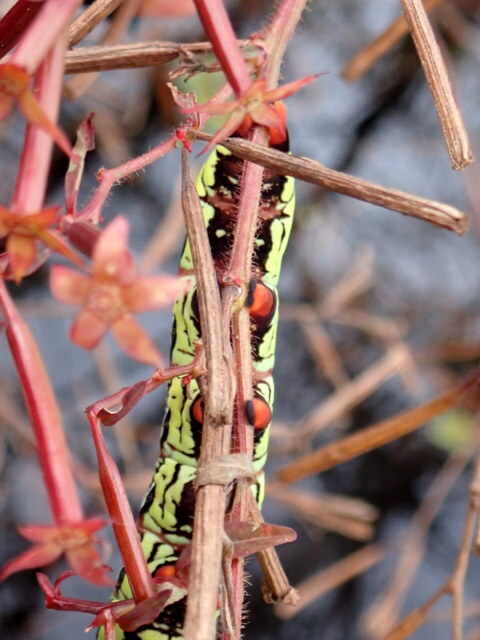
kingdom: Animalia
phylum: Arthropoda
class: Insecta
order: Lepidoptera
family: Sphingidae
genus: Eumorpha
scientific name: Eumorpha fasciatus
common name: Banded sphinx
